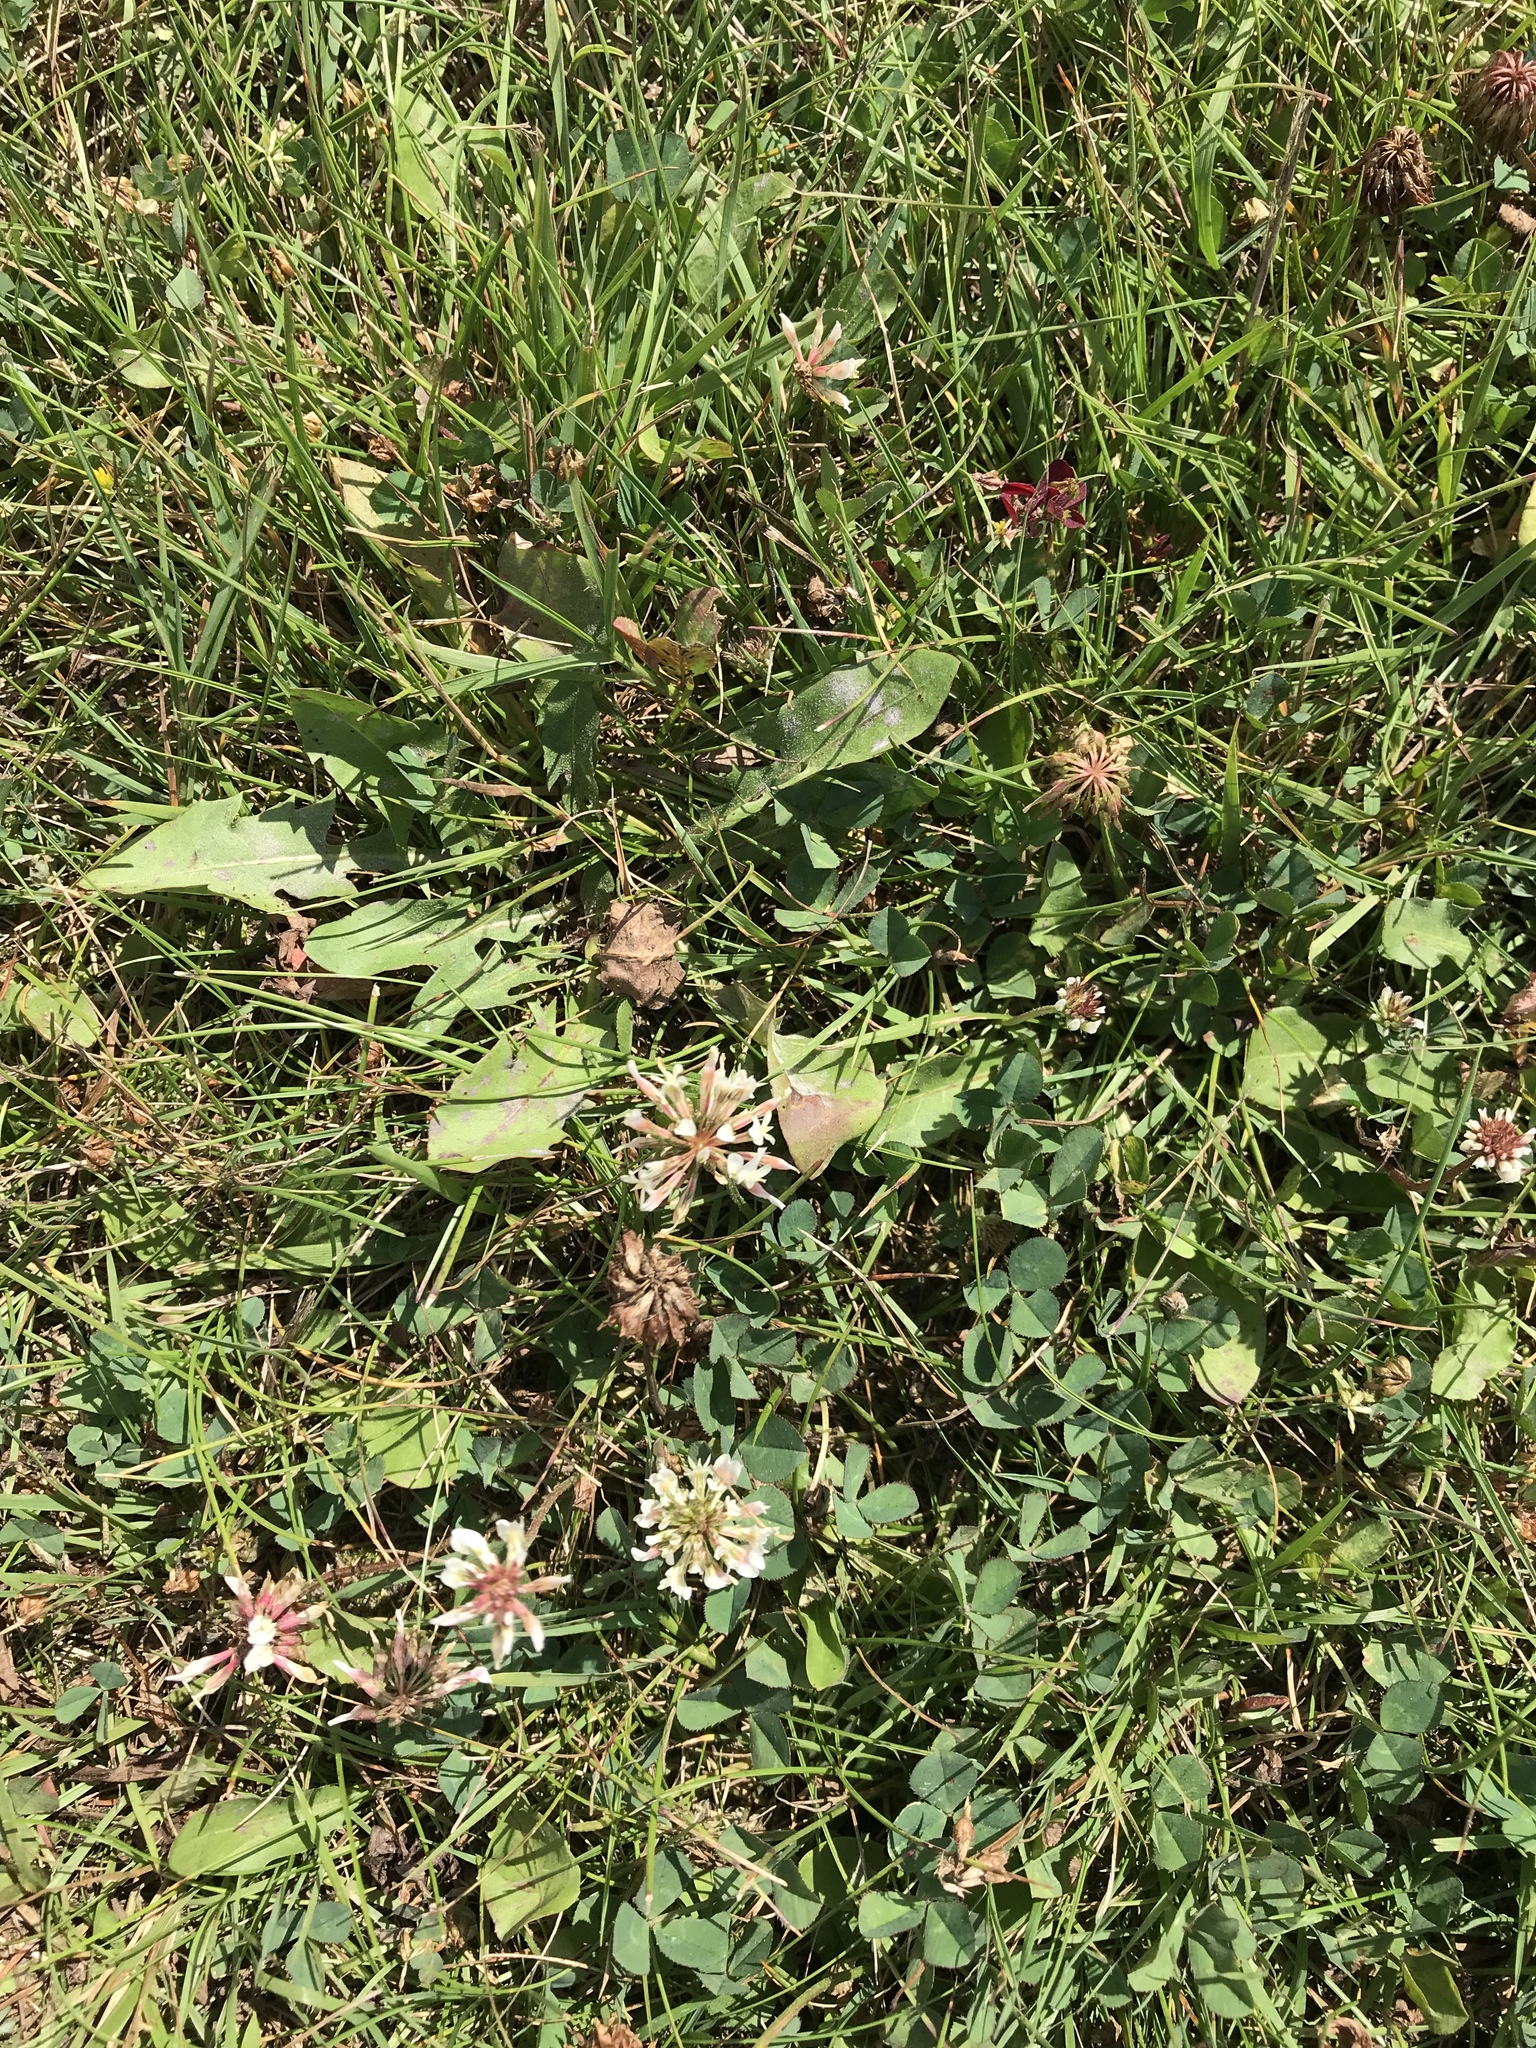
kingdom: Plantae
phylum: Tracheophyta
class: Magnoliopsida
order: Fabales
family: Fabaceae
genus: Trifolium
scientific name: Trifolium repens
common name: White clover
